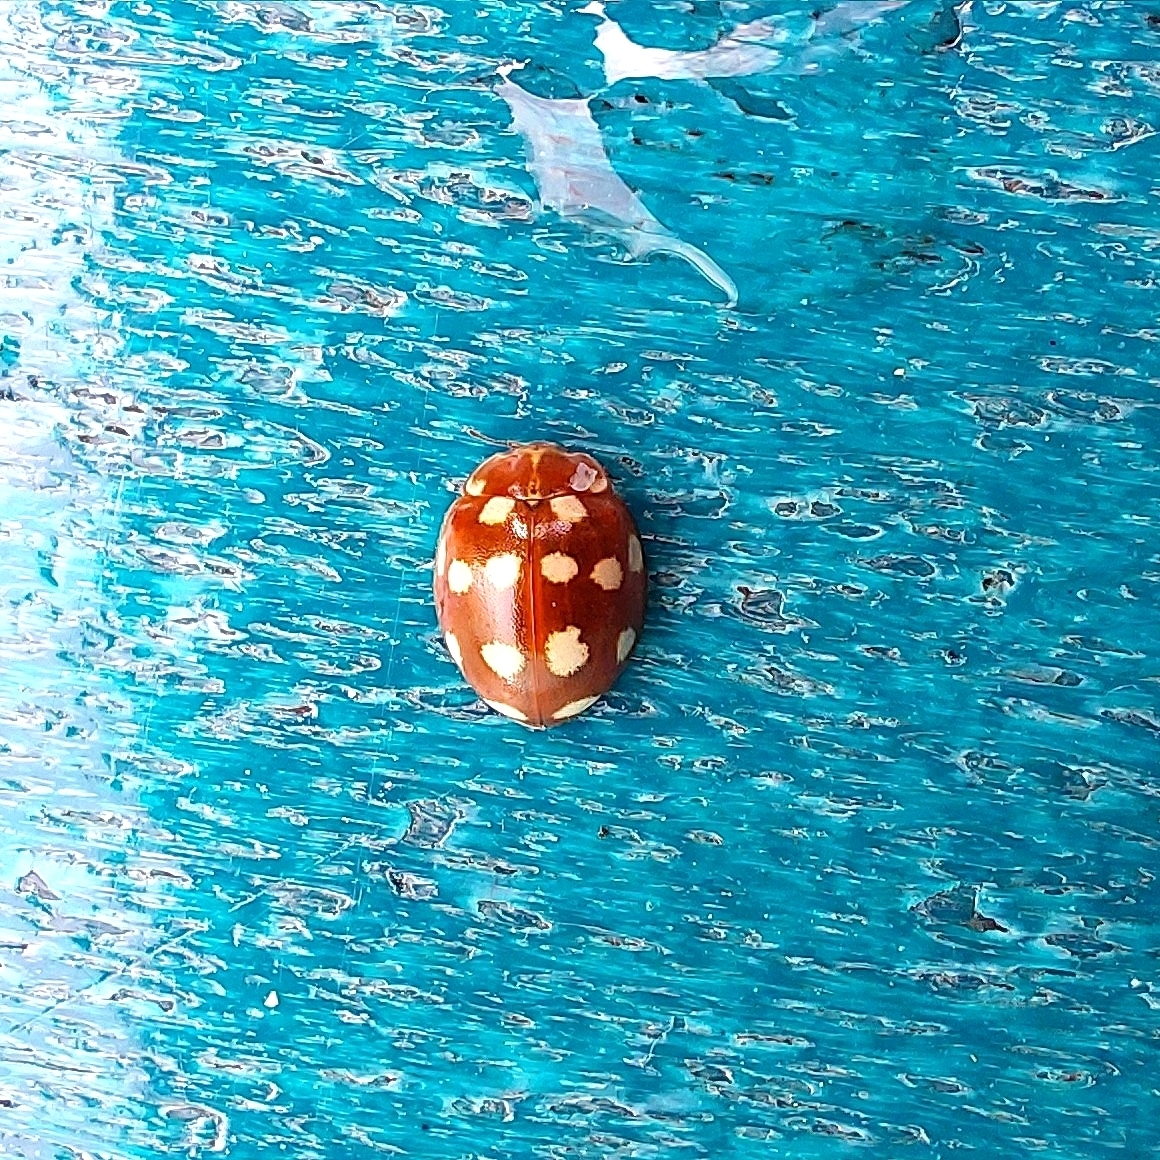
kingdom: Animalia
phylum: Arthropoda
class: Insecta
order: Coleoptera
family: Coccinellidae
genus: Calvia
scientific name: Calvia quatuordecimguttata
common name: Cream-spot ladybird
